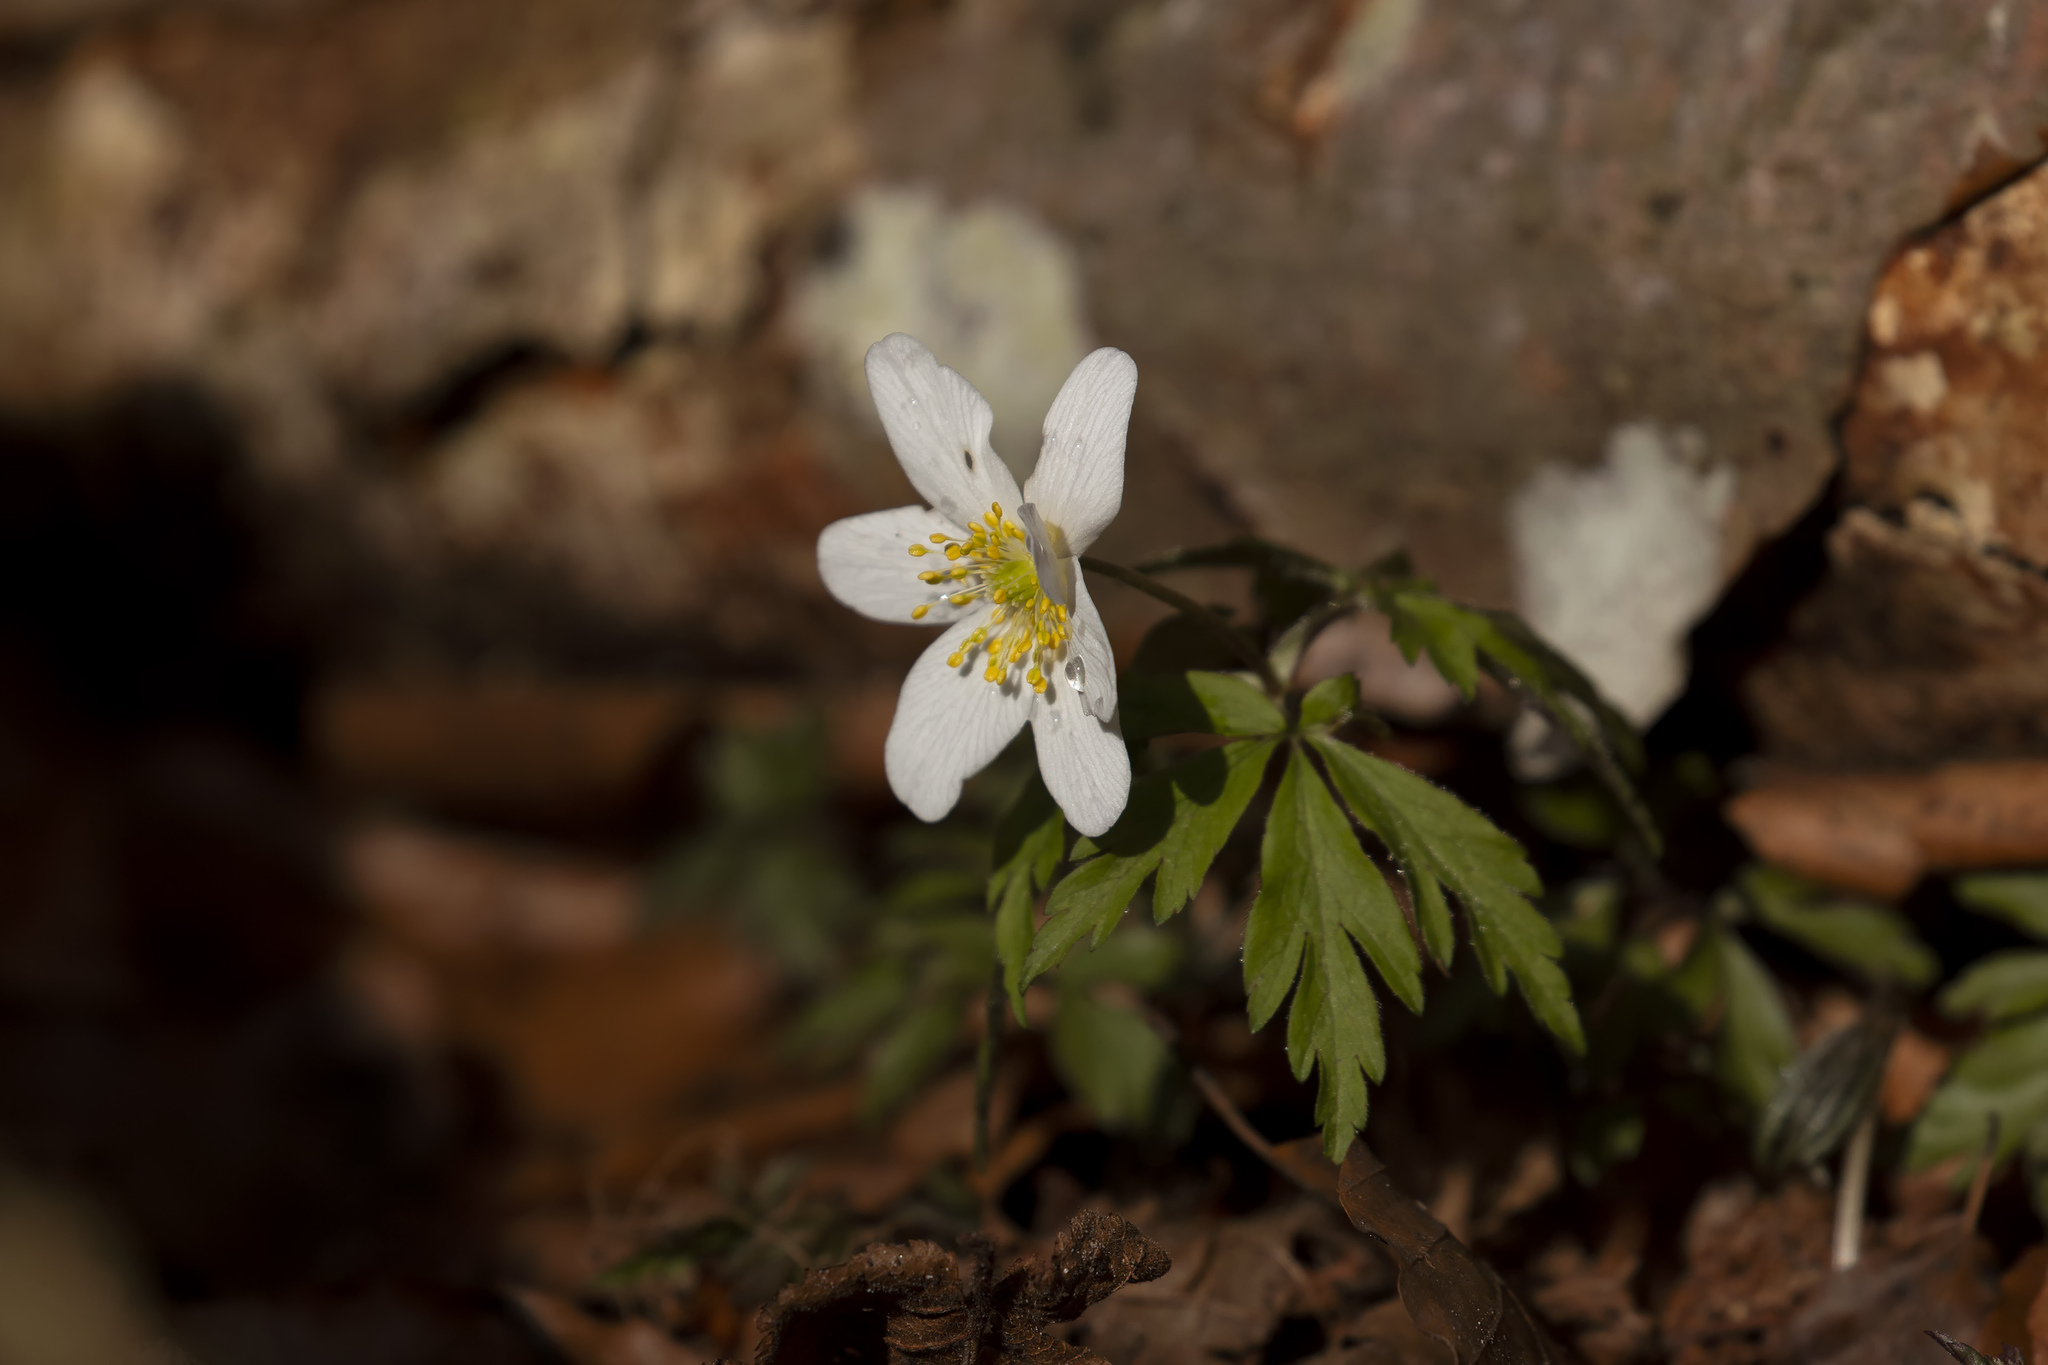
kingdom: Plantae
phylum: Tracheophyta
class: Magnoliopsida
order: Ranunculales
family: Ranunculaceae
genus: Anemone
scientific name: Anemone nemorosa
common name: Wood anemone
